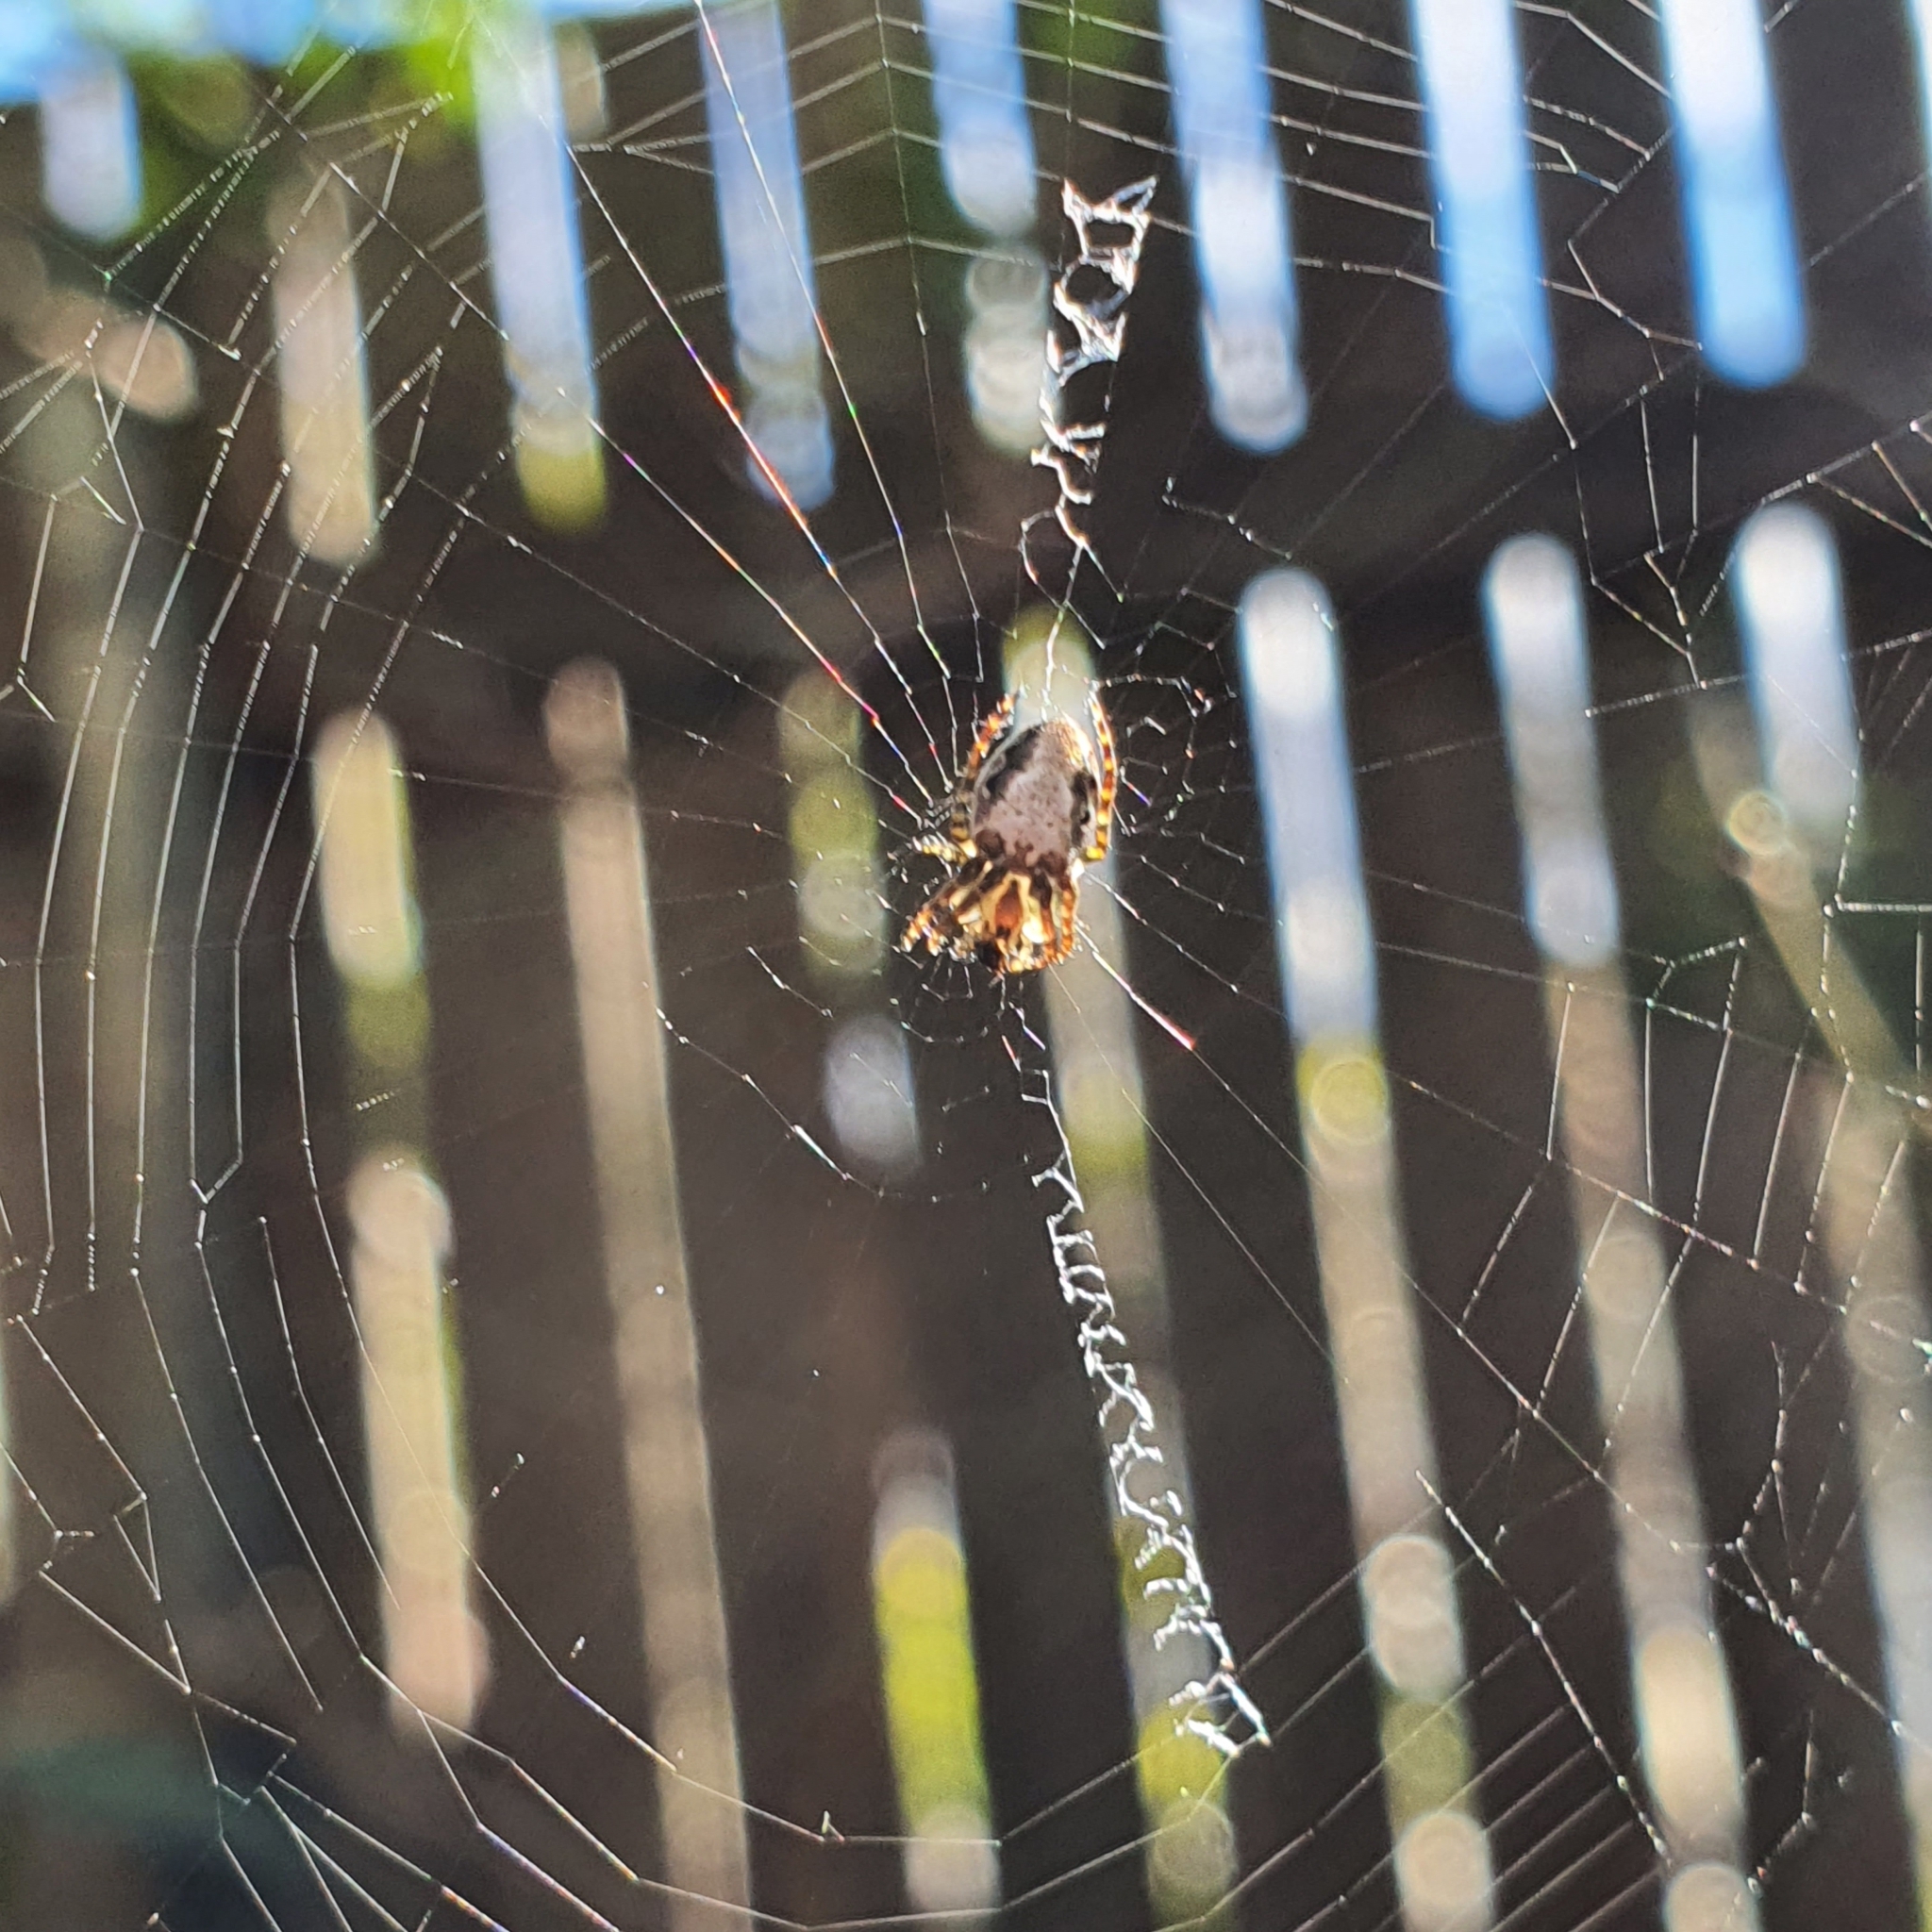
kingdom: Animalia
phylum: Arthropoda
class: Arachnida
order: Araneae
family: Araneidae
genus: Plebs
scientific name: Plebs eburnus
